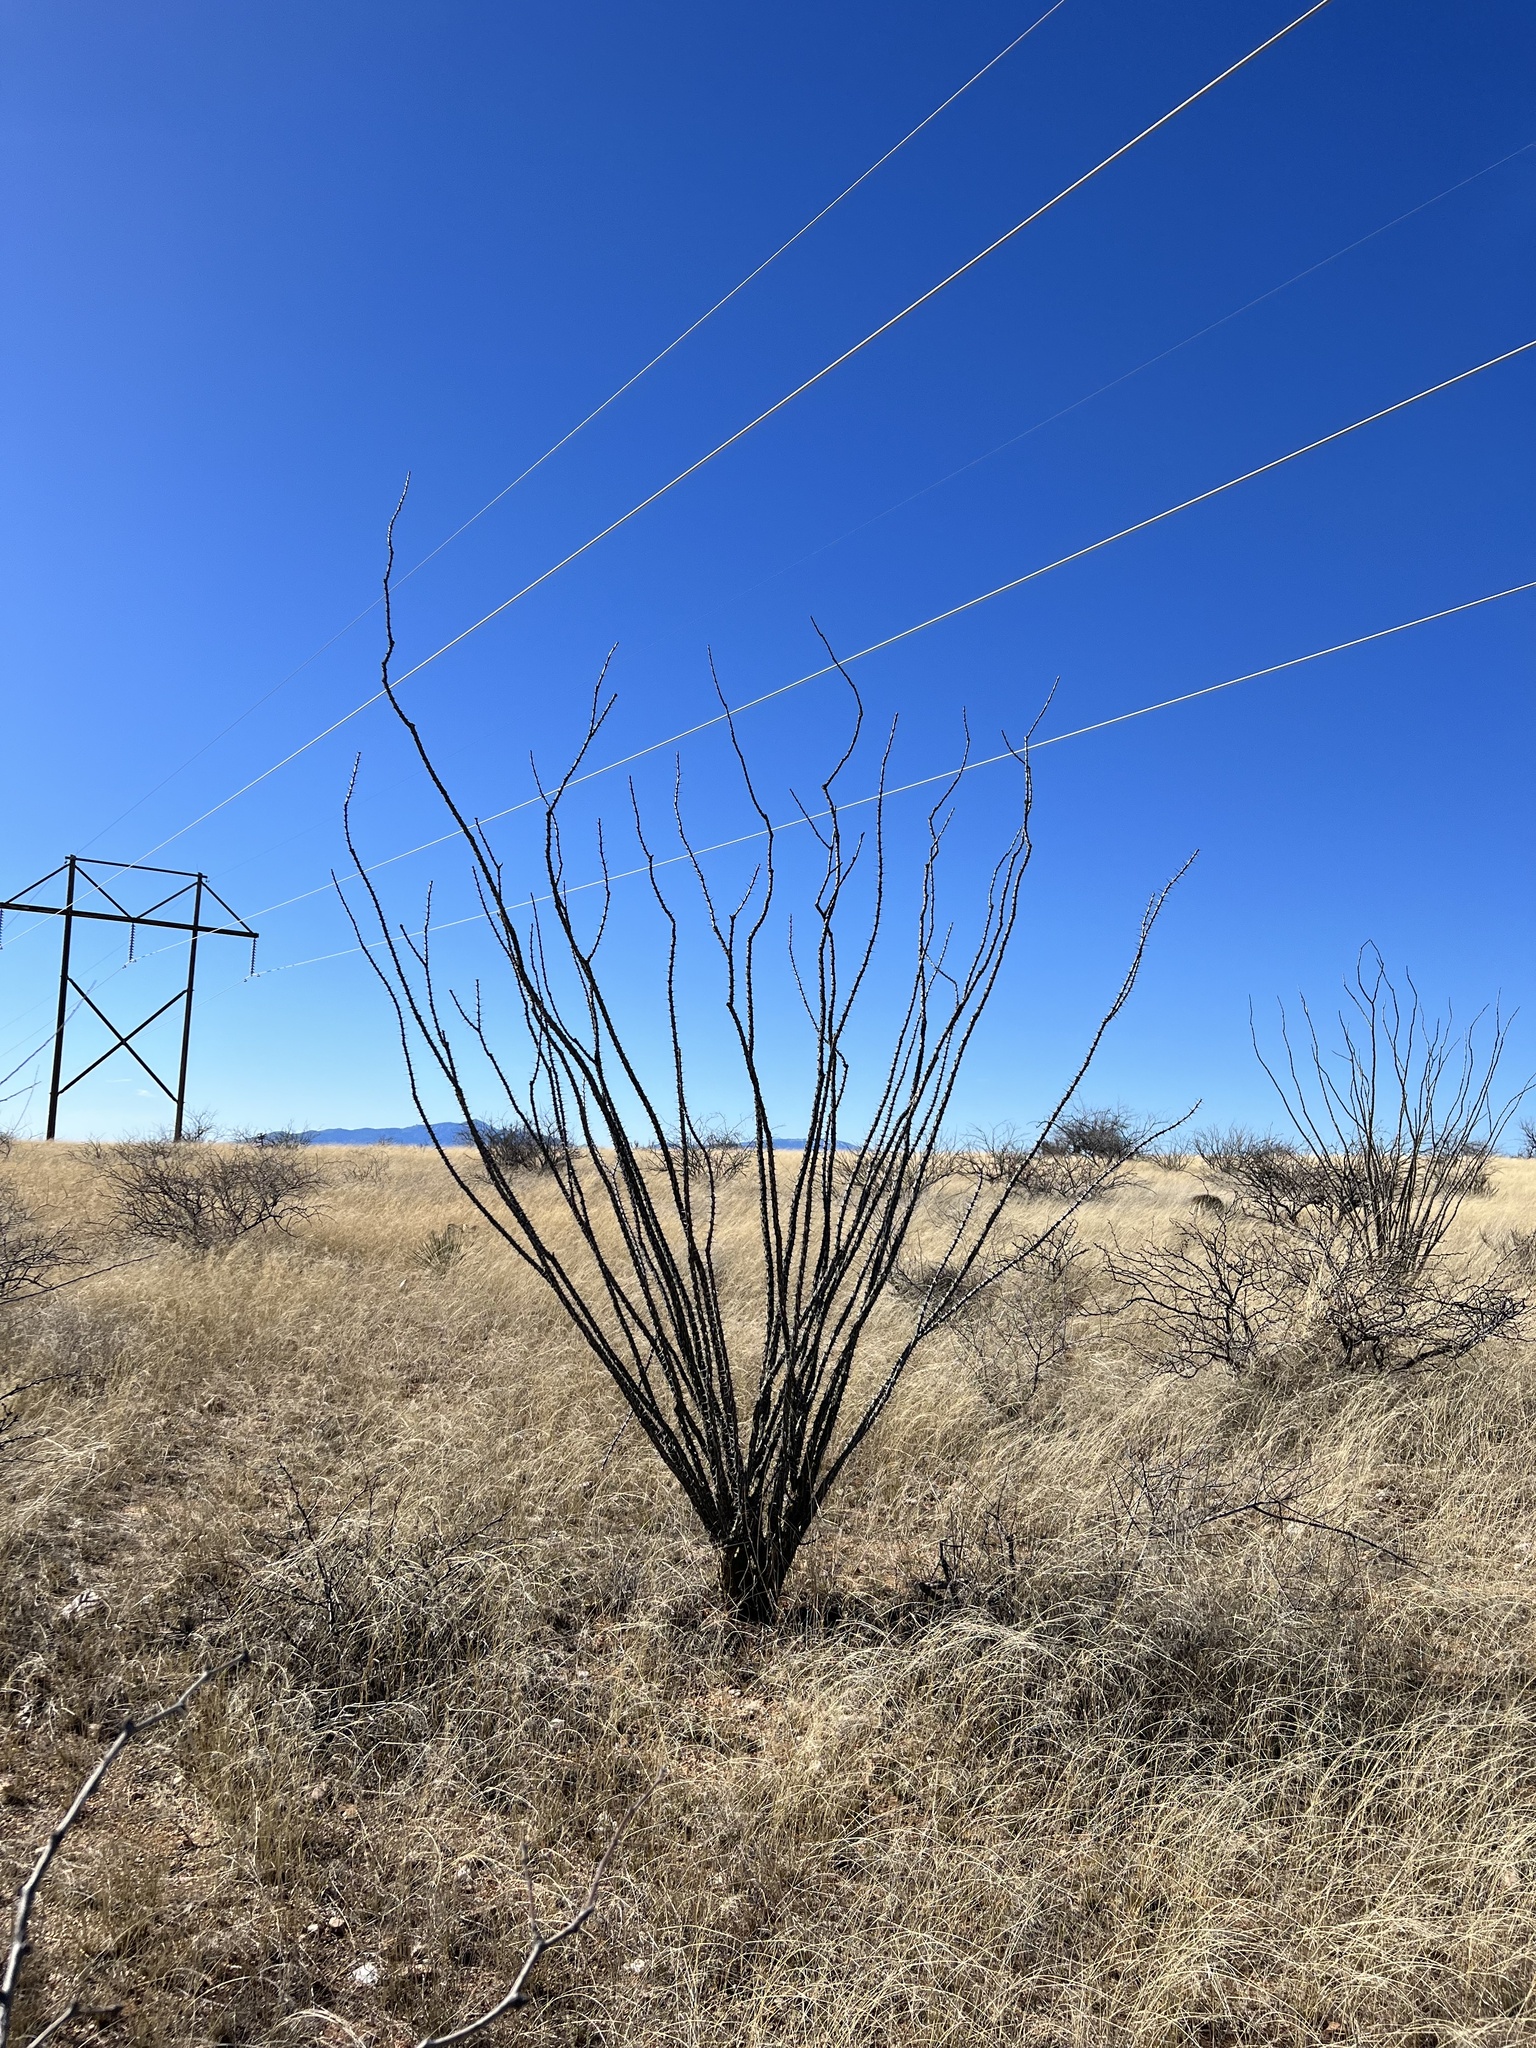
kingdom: Plantae
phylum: Tracheophyta
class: Magnoliopsida
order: Ericales
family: Fouquieriaceae
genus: Fouquieria
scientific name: Fouquieria splendens
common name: Vine-cactus
